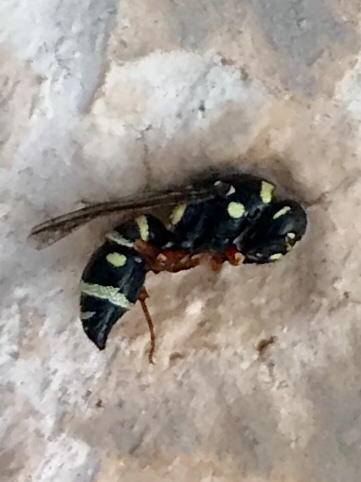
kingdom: Animalia
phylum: Arthropoda
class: Insecta
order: Hymenoptera
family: Eumenidae
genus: Parancistrocerus
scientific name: Parancistrocerus
